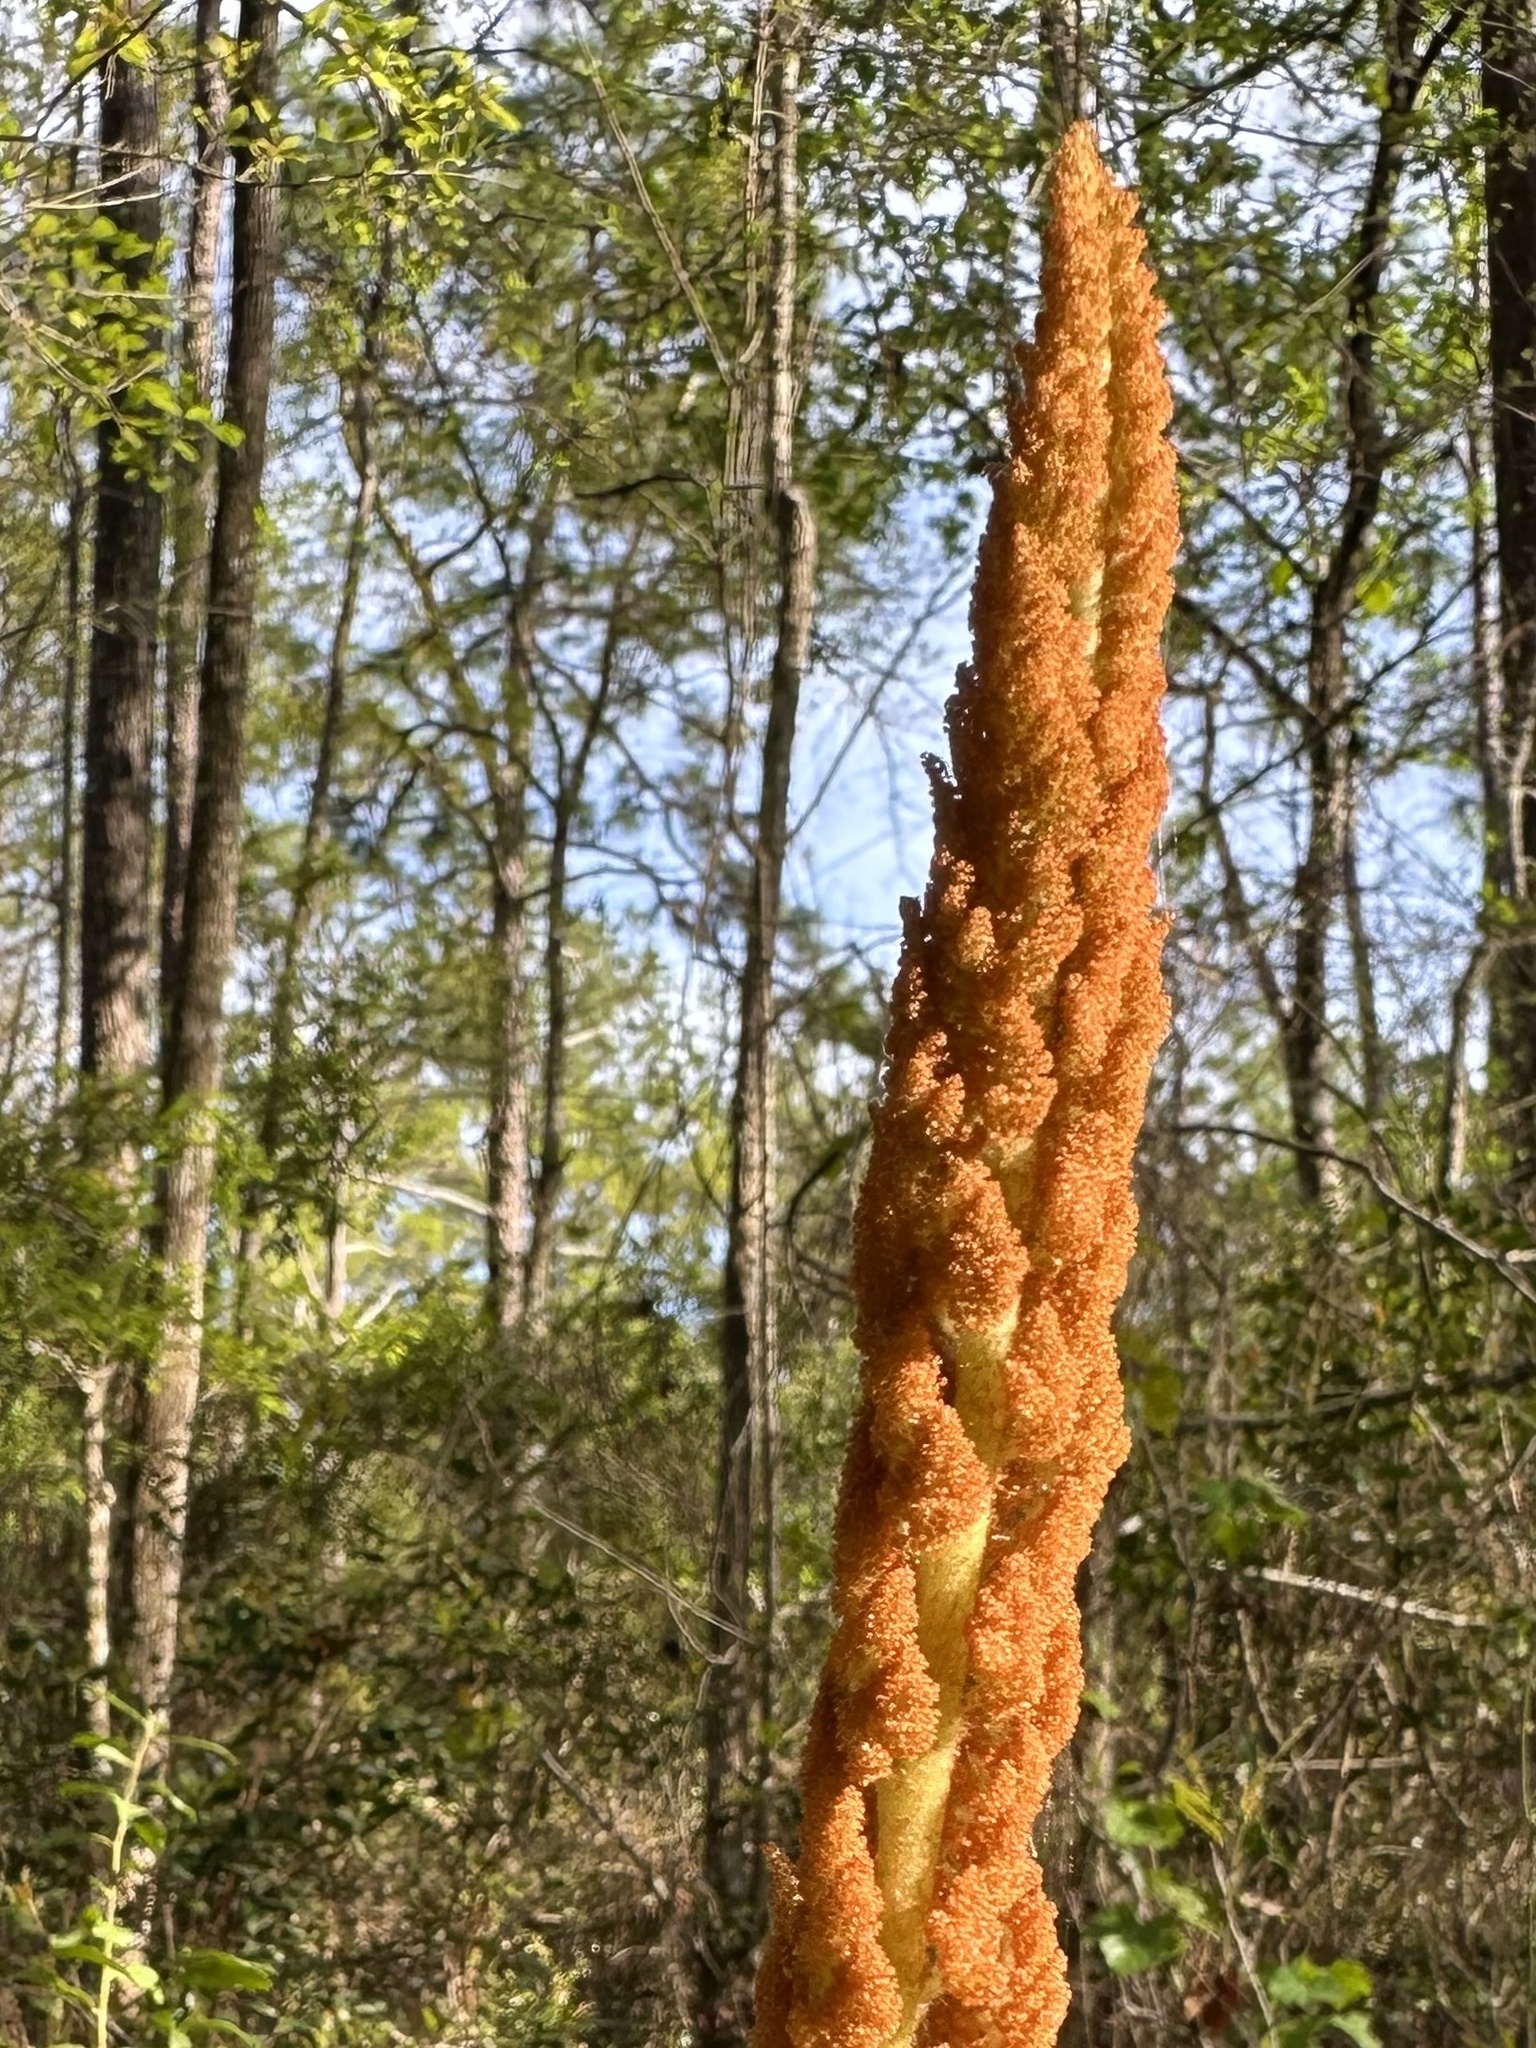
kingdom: Plantae
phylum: Tracheophyta
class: Polypodiopsida
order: Osmundales
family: Osmundaceae
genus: Osmundastrum
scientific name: Osmundastrum cinnamomeum
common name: Cinnamon fern
